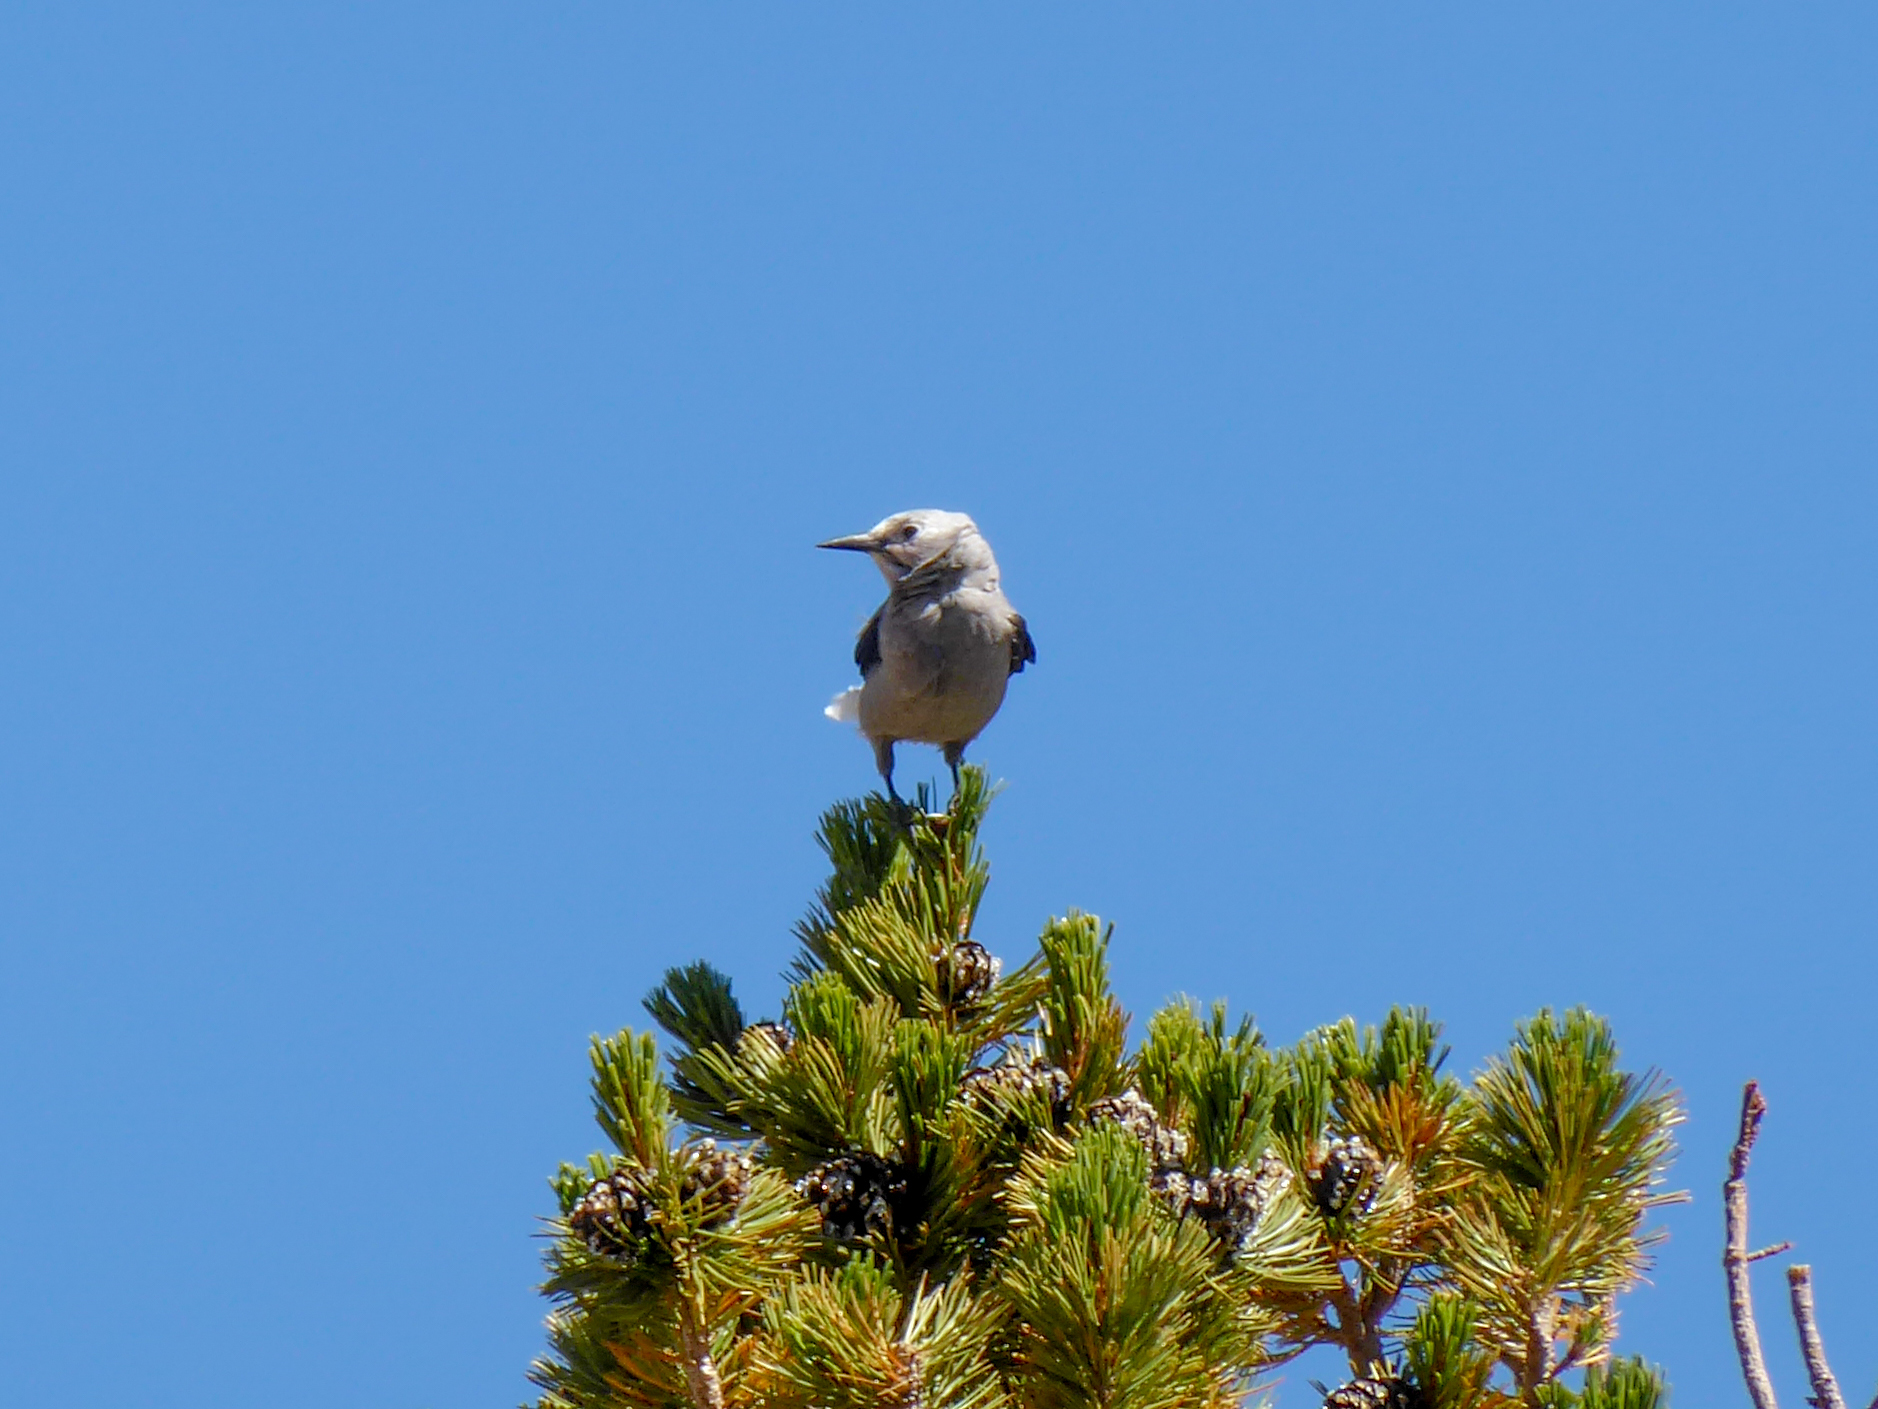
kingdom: Animalia
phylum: Chordata
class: Aves
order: Passeriformes
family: Corvidae
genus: Nucifraga
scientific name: Nucifraga columbiana
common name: Clark's nutcracker
